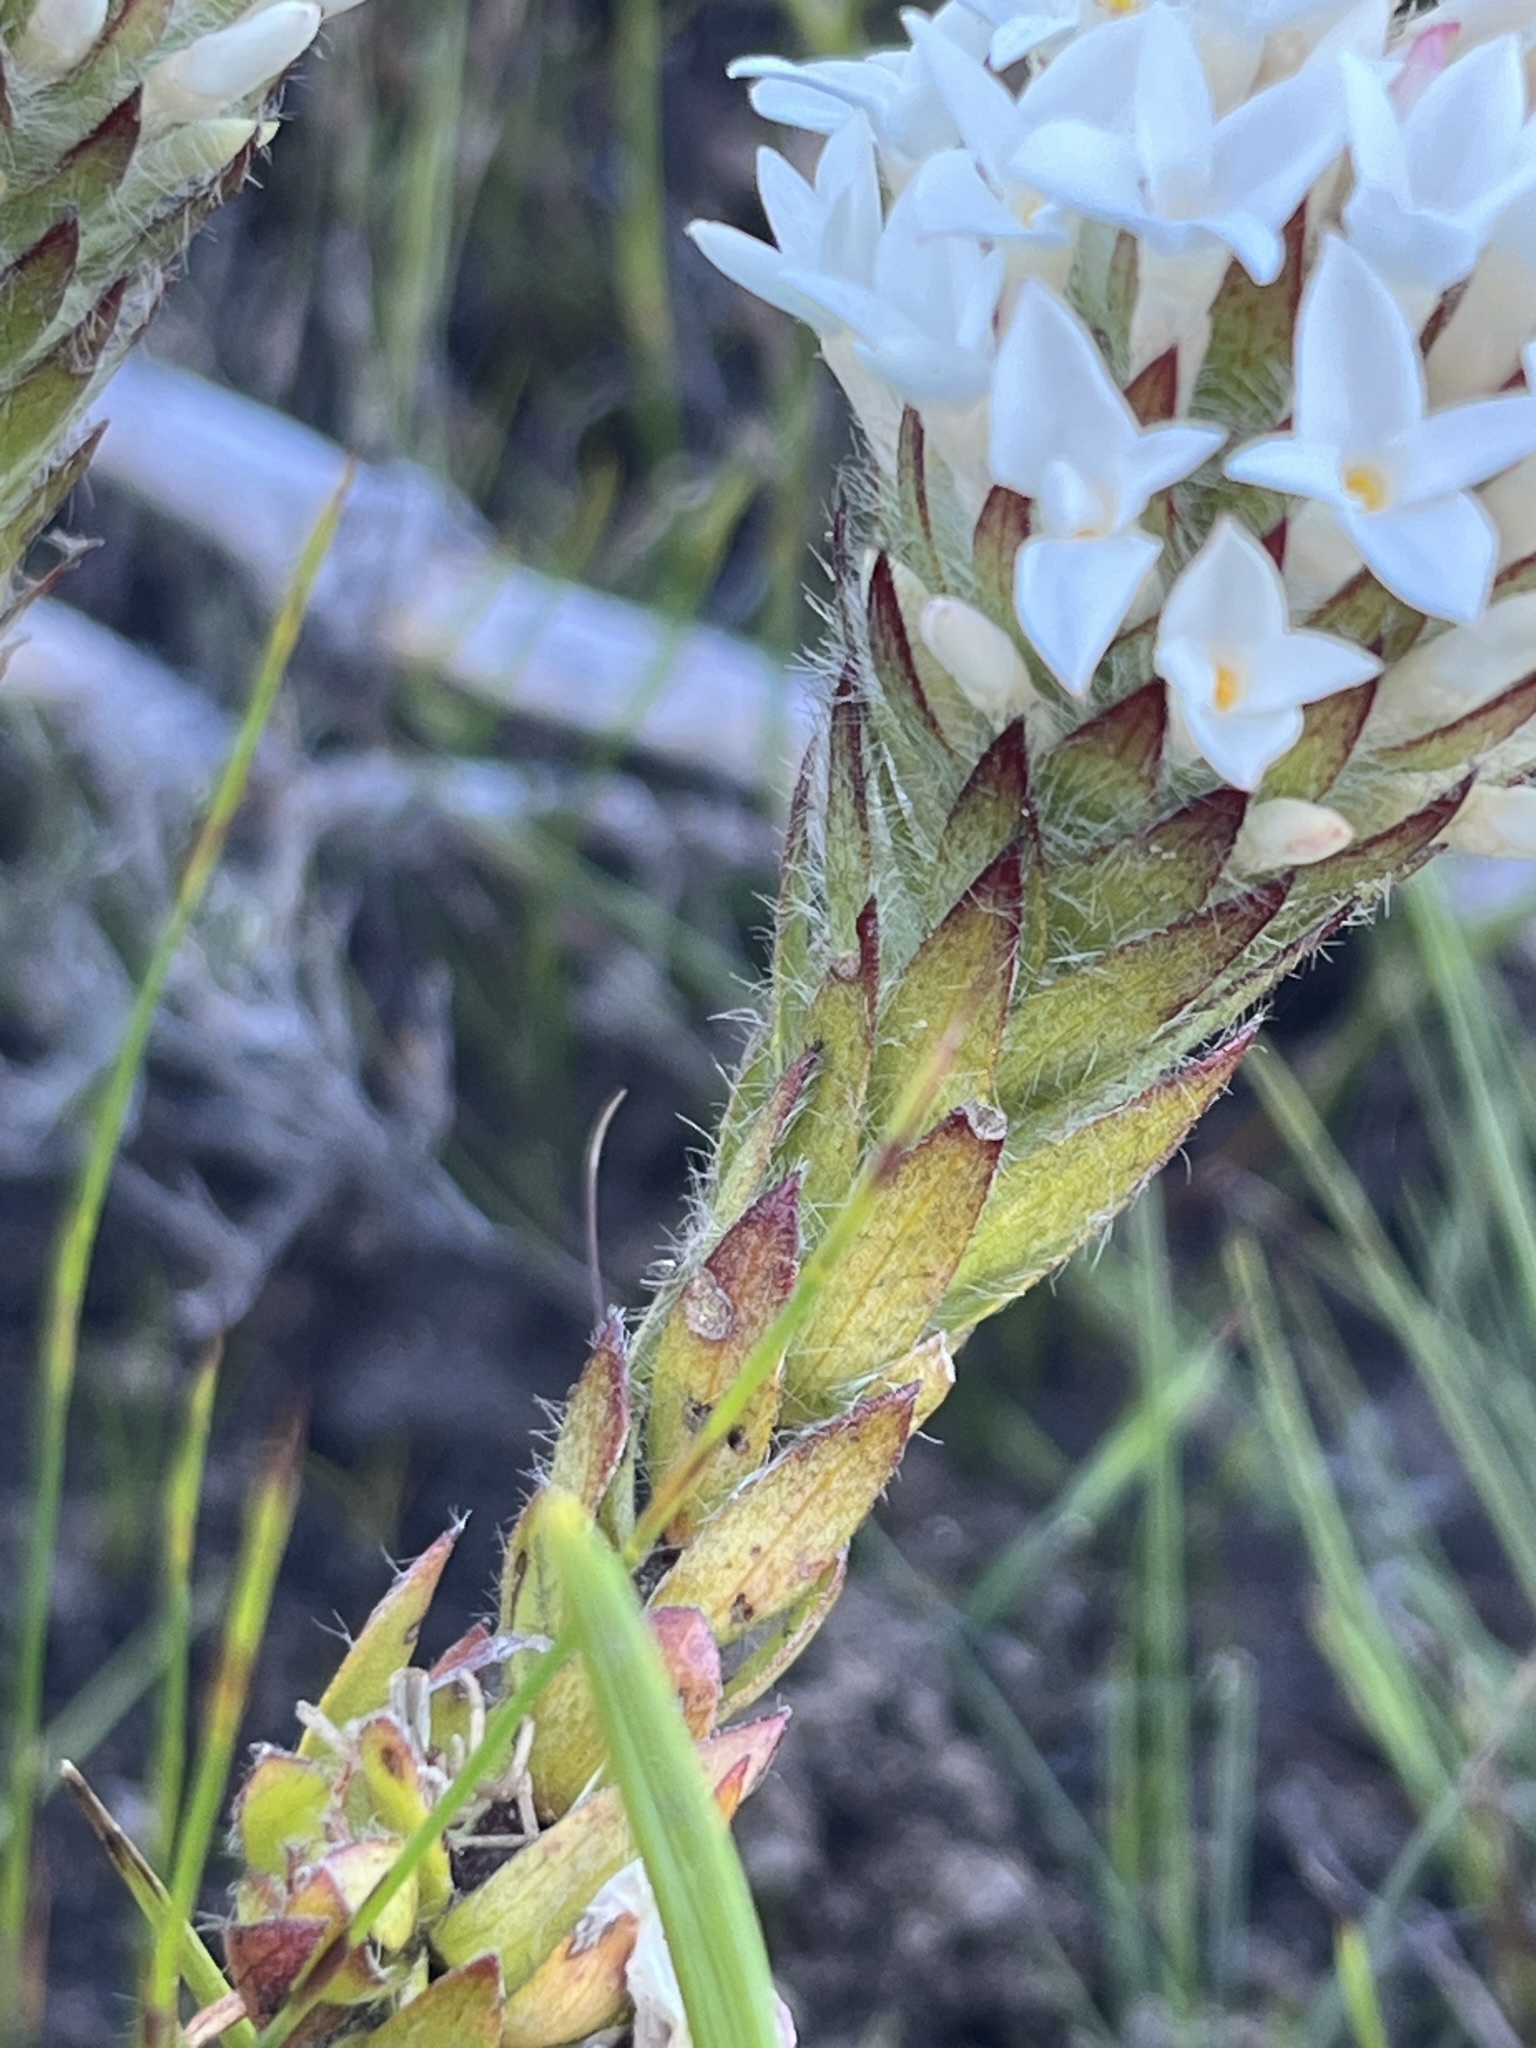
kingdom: Plantae
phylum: Tracheophyta
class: Magnoliopsida
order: Malvales
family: Thymelaeaceae
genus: Gnidia
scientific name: Gnidia ornata
